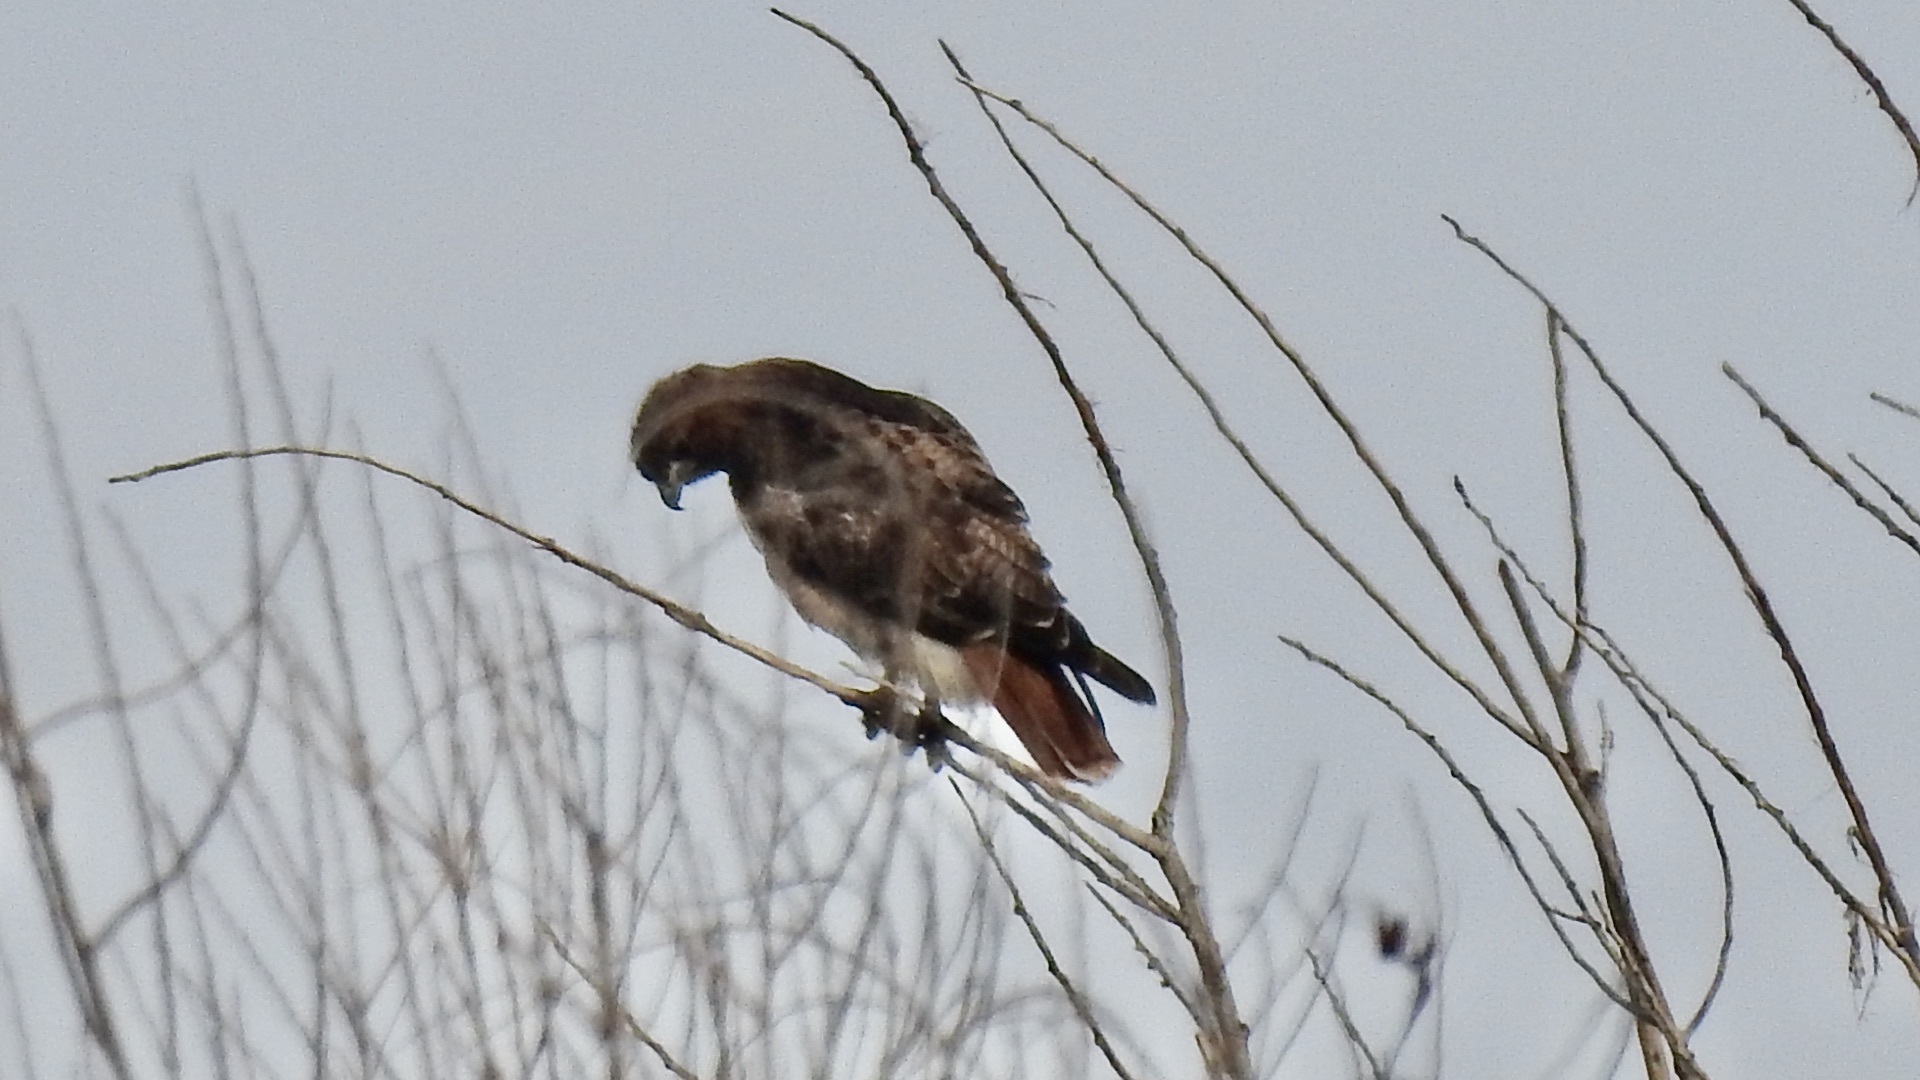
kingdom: Animalia
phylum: Chordata
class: Aves
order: Accipitriformes
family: Accipitridae
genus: Buteo
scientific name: Buteo jamaicensis
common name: Red-tailed hawk
